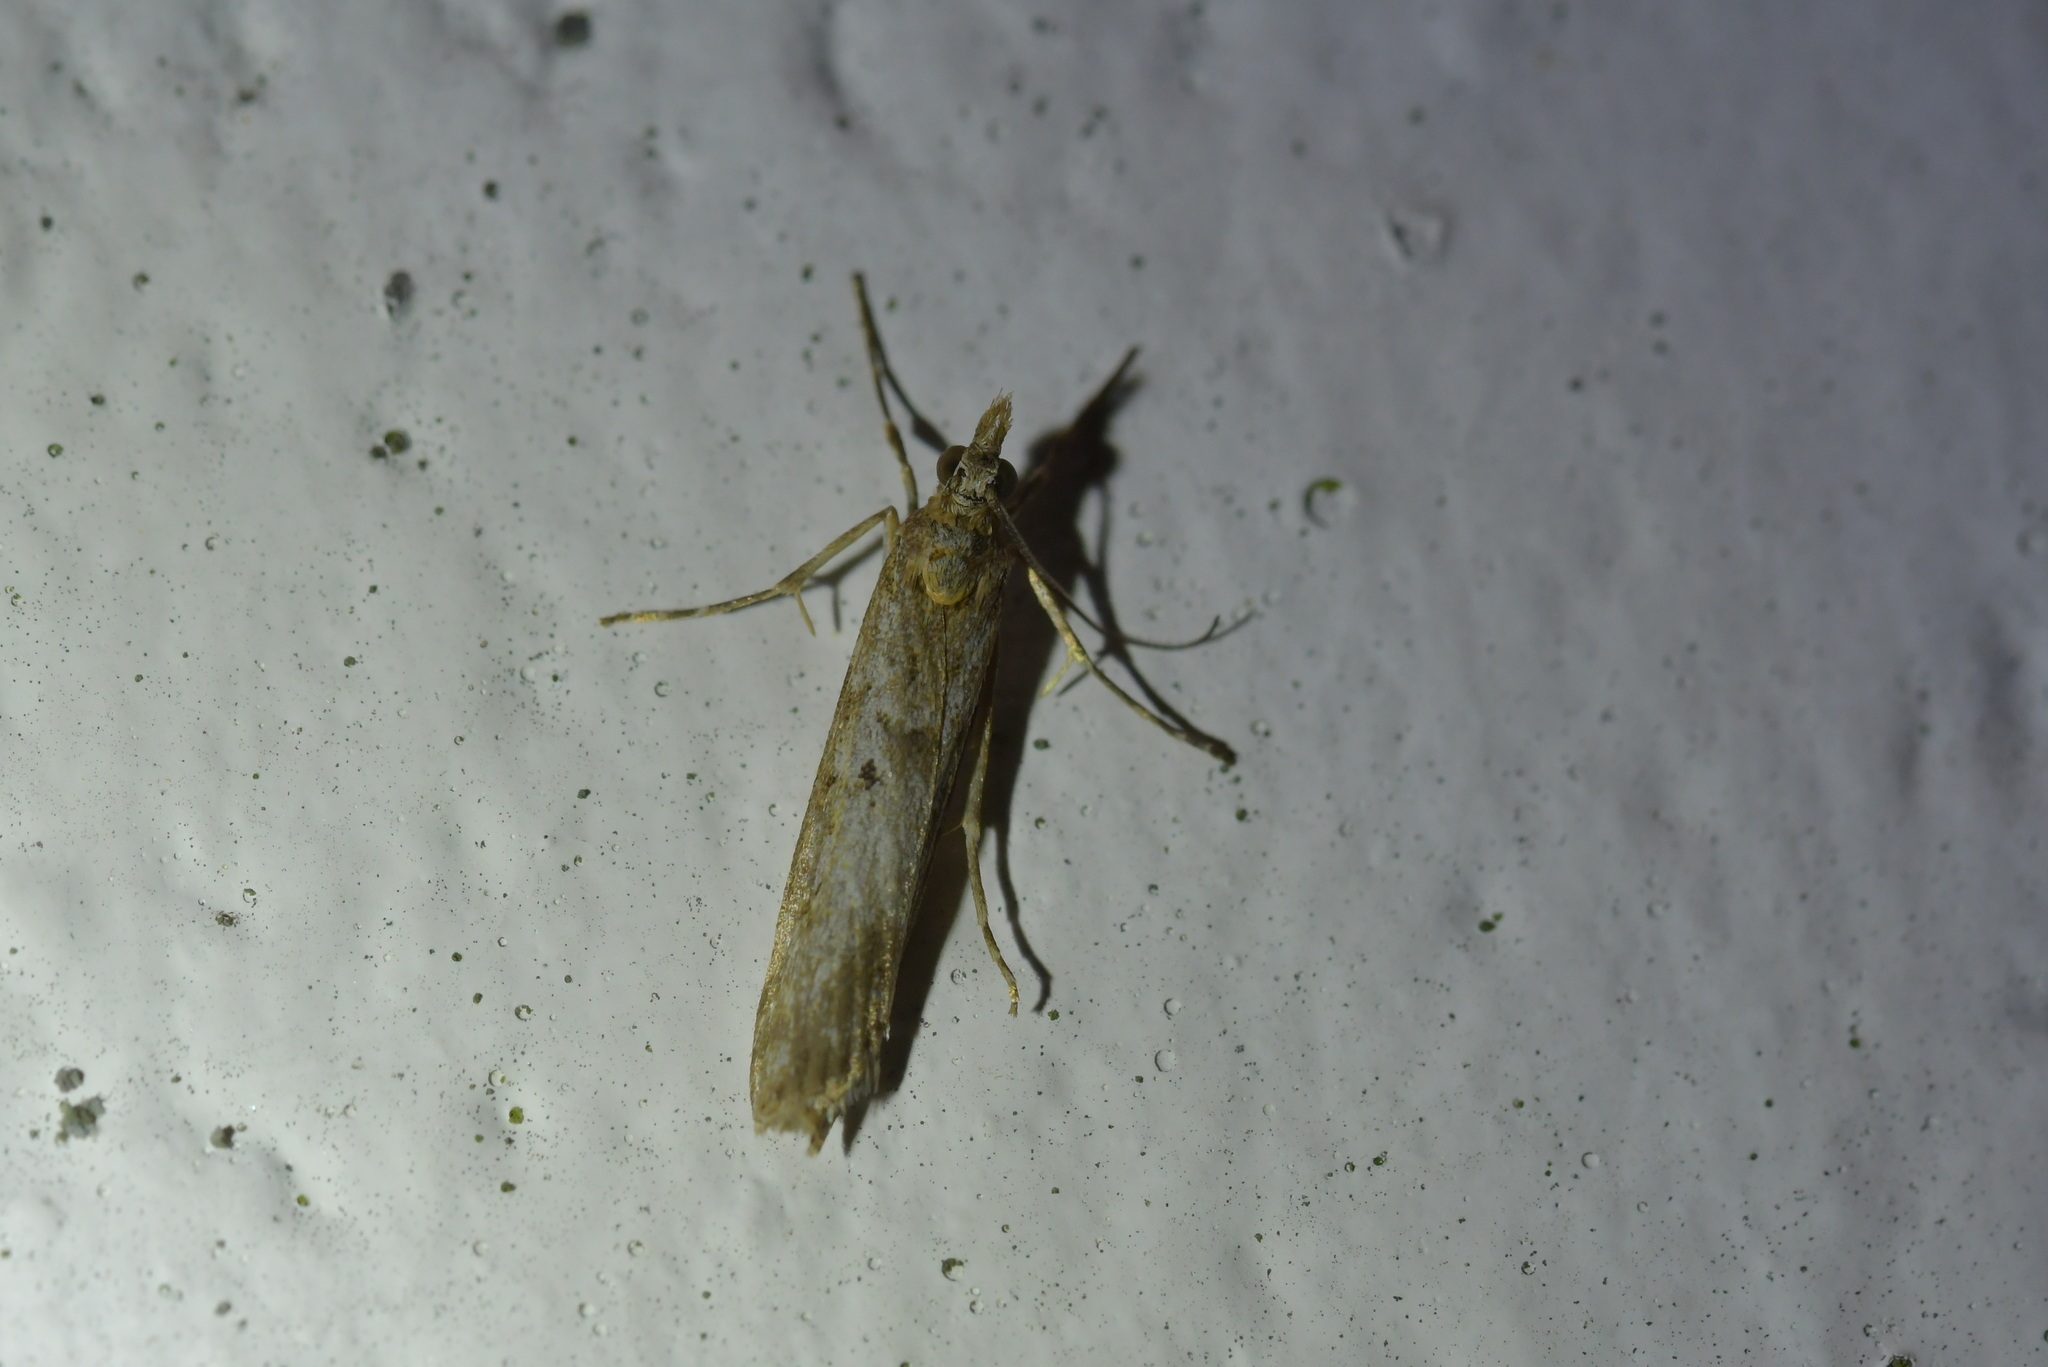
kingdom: Animalia
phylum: Arthropoda
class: Insecta
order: Lepidoptera
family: Crambidae
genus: Eudonia
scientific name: Eudonia leptalea
